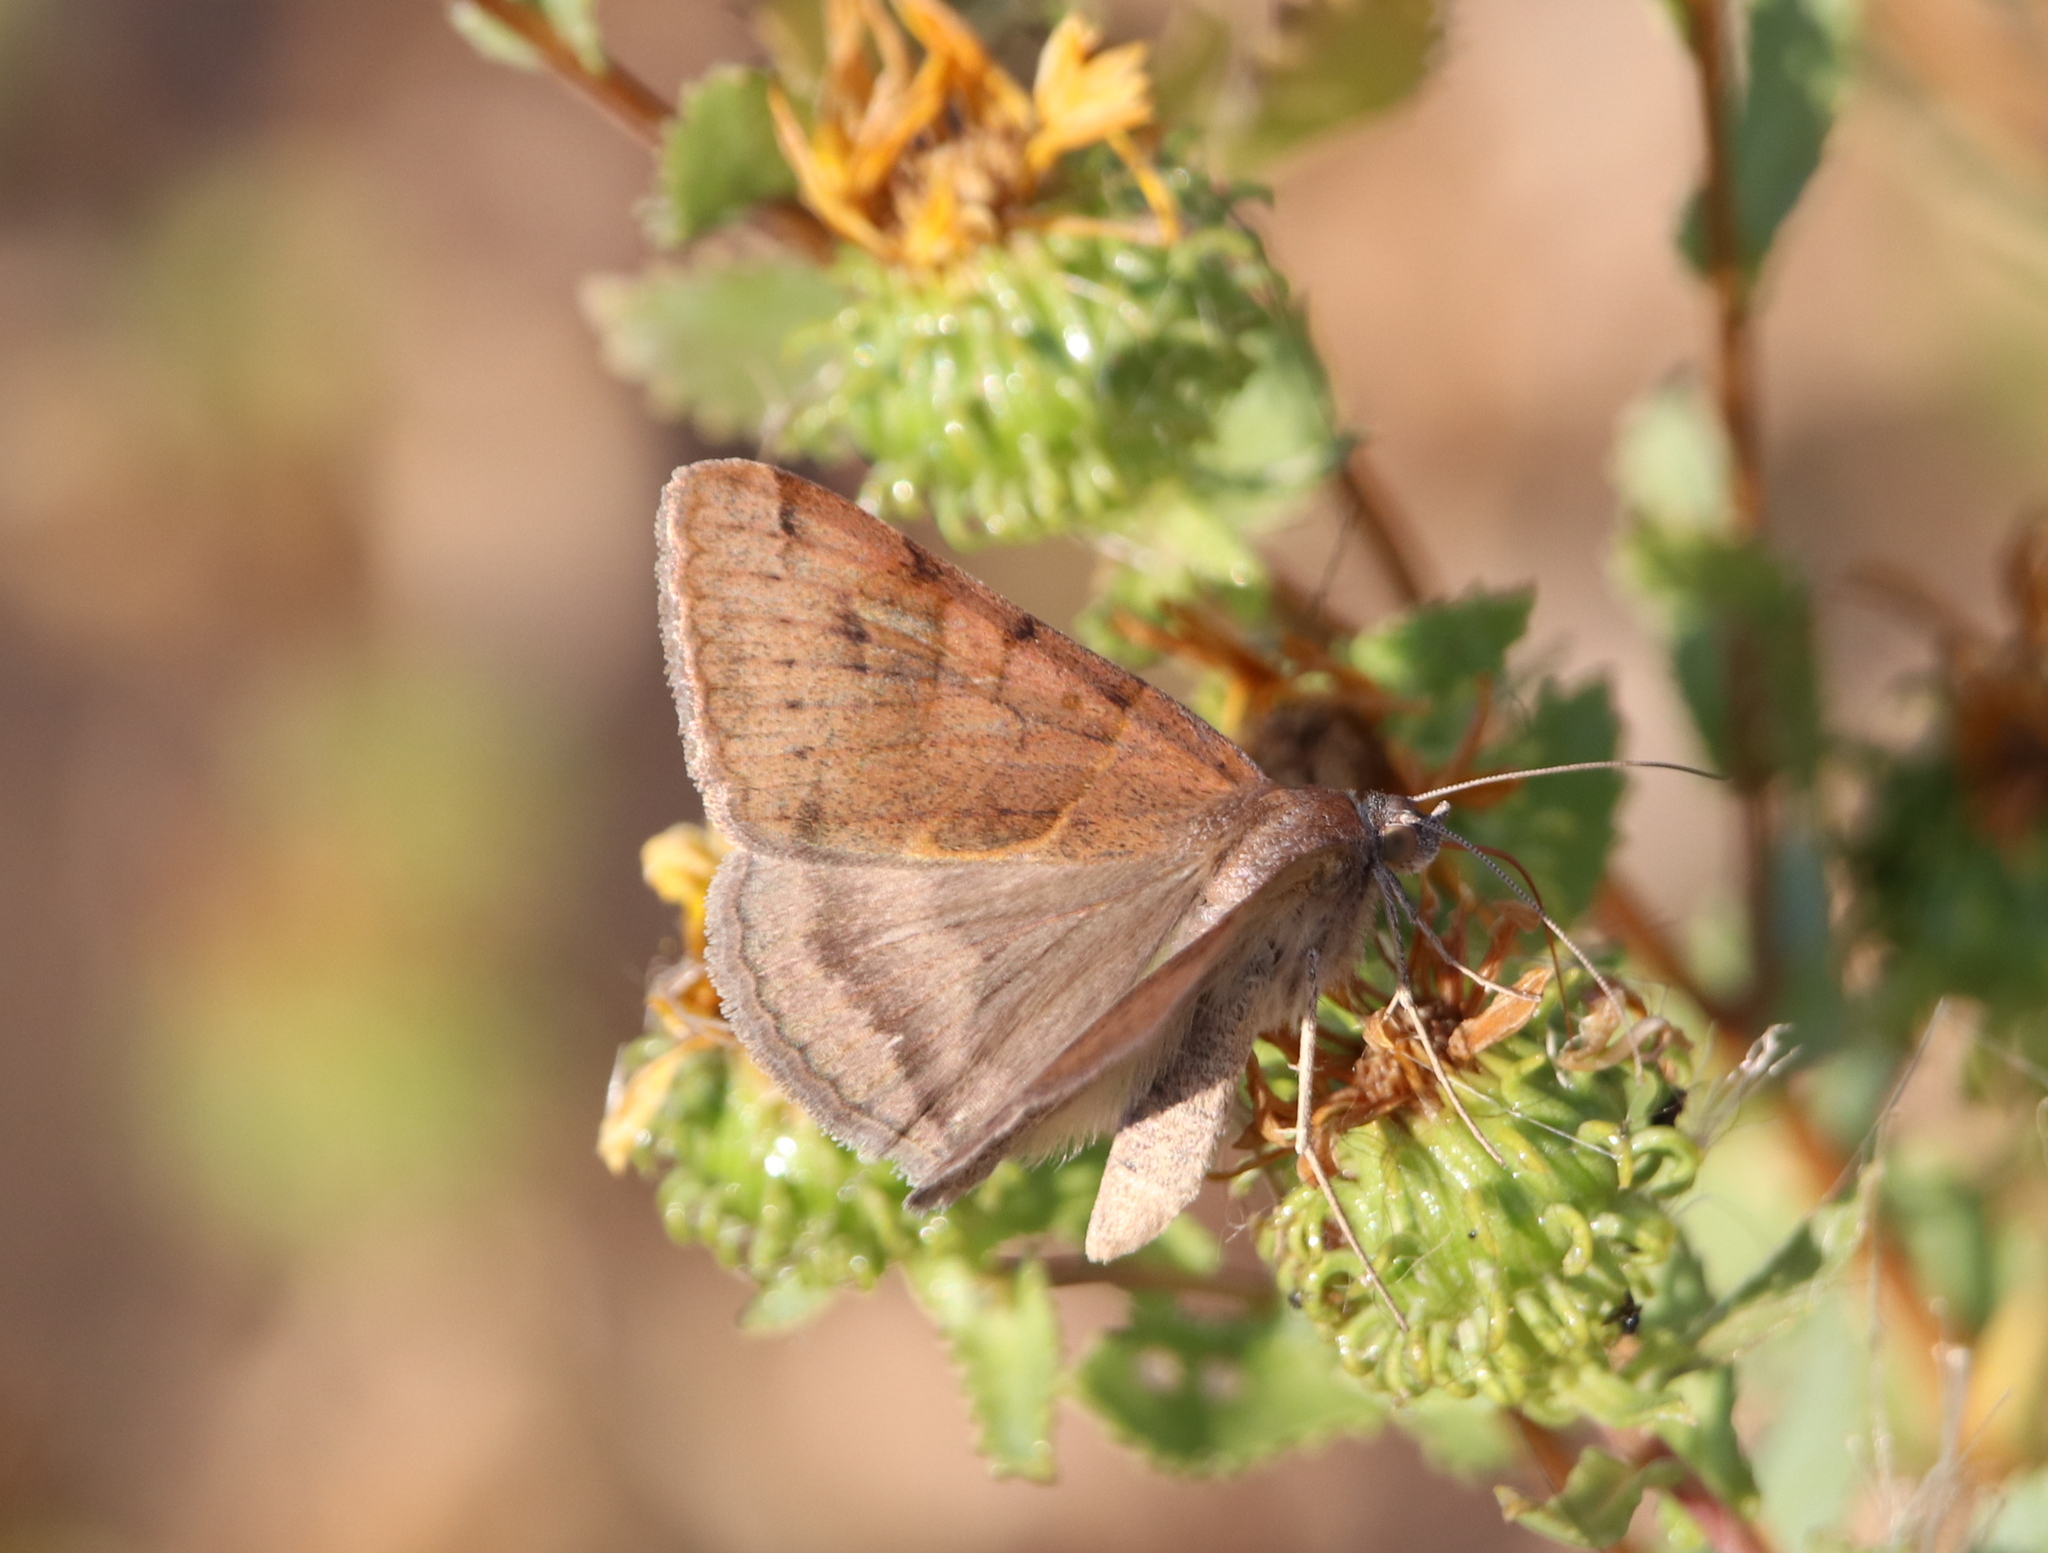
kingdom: Animalia
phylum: Arthropoda
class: Insecta
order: Lepidoptera
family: Erebidae
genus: Caenurgina
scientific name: Caenurgina erechtea
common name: Forage looper moth
